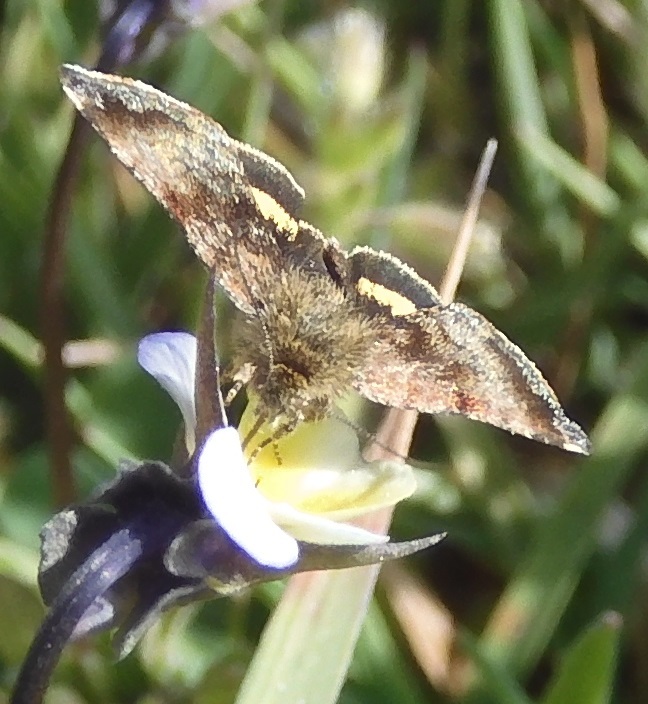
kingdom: Animalia
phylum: Arthropoda
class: Insecta
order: Lepidoptera
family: Noctuidae
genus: Panemeria
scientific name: Panemeria tenebrata
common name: Small yellow underwing
